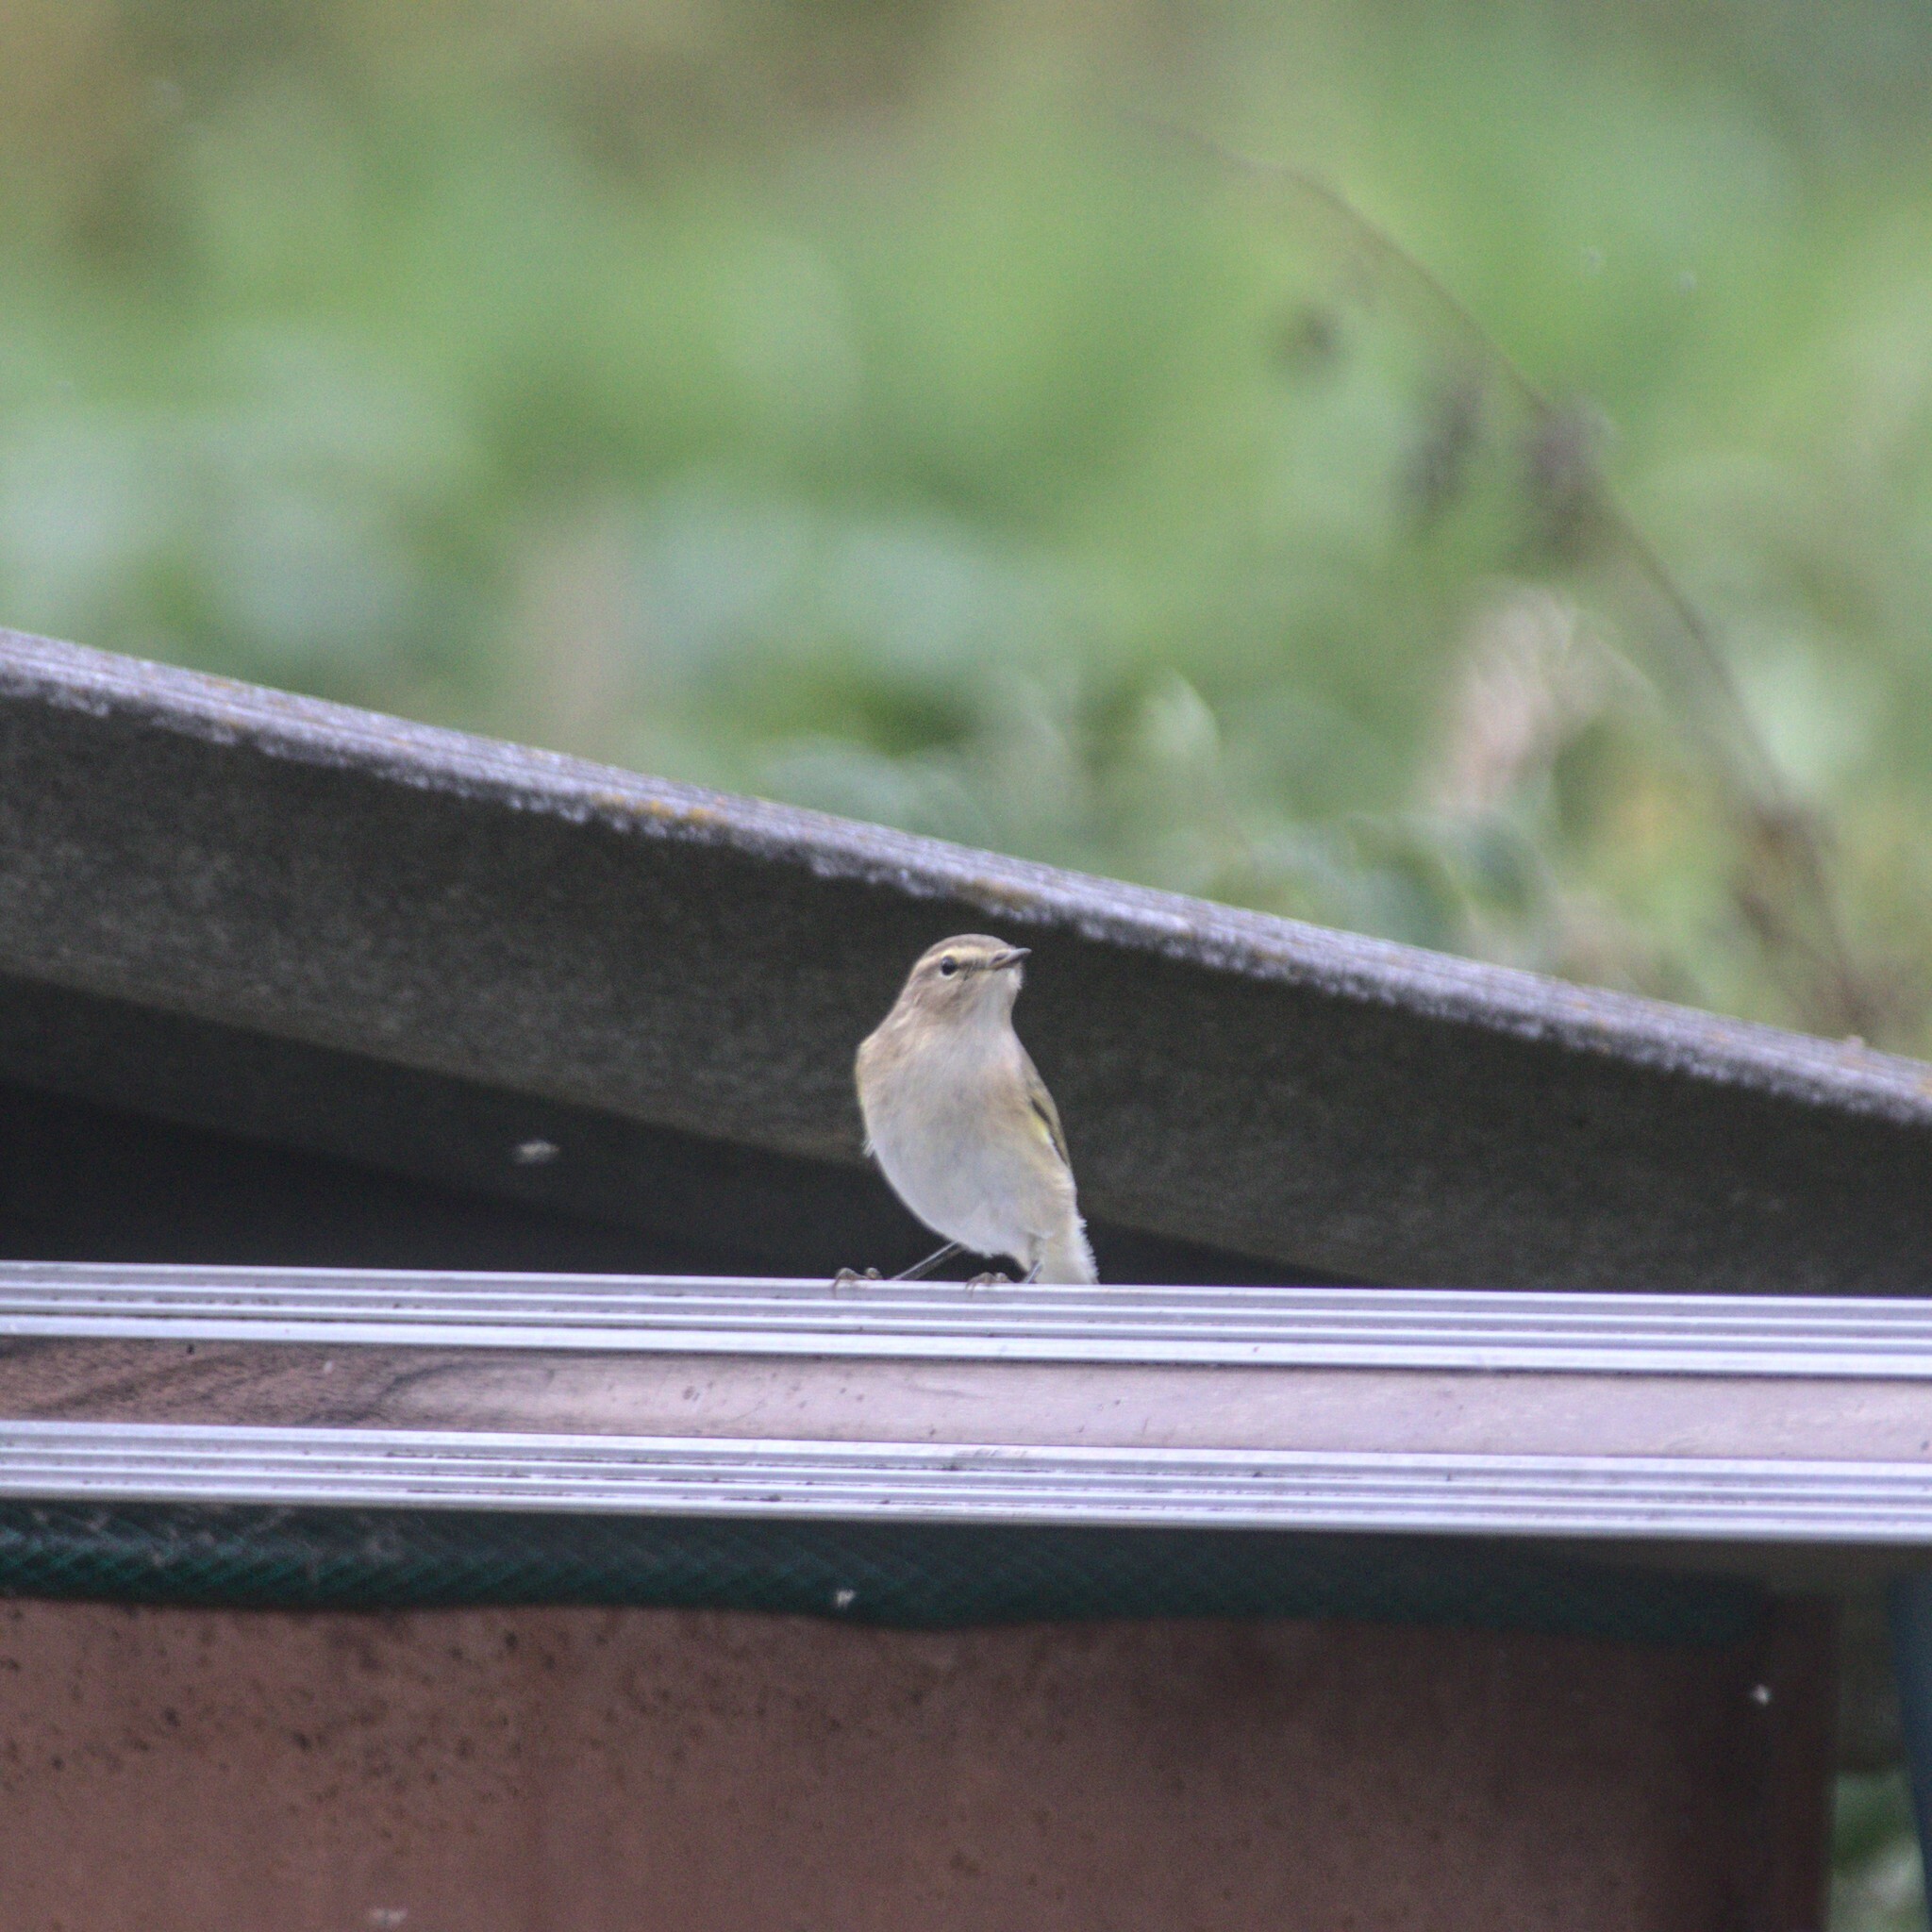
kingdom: Animalia
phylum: Chordata
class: Aves
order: Passeriformes
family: Phylloscopidae
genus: Phylloscopus
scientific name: Phylloscopus collybita
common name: Common chiffchaff
